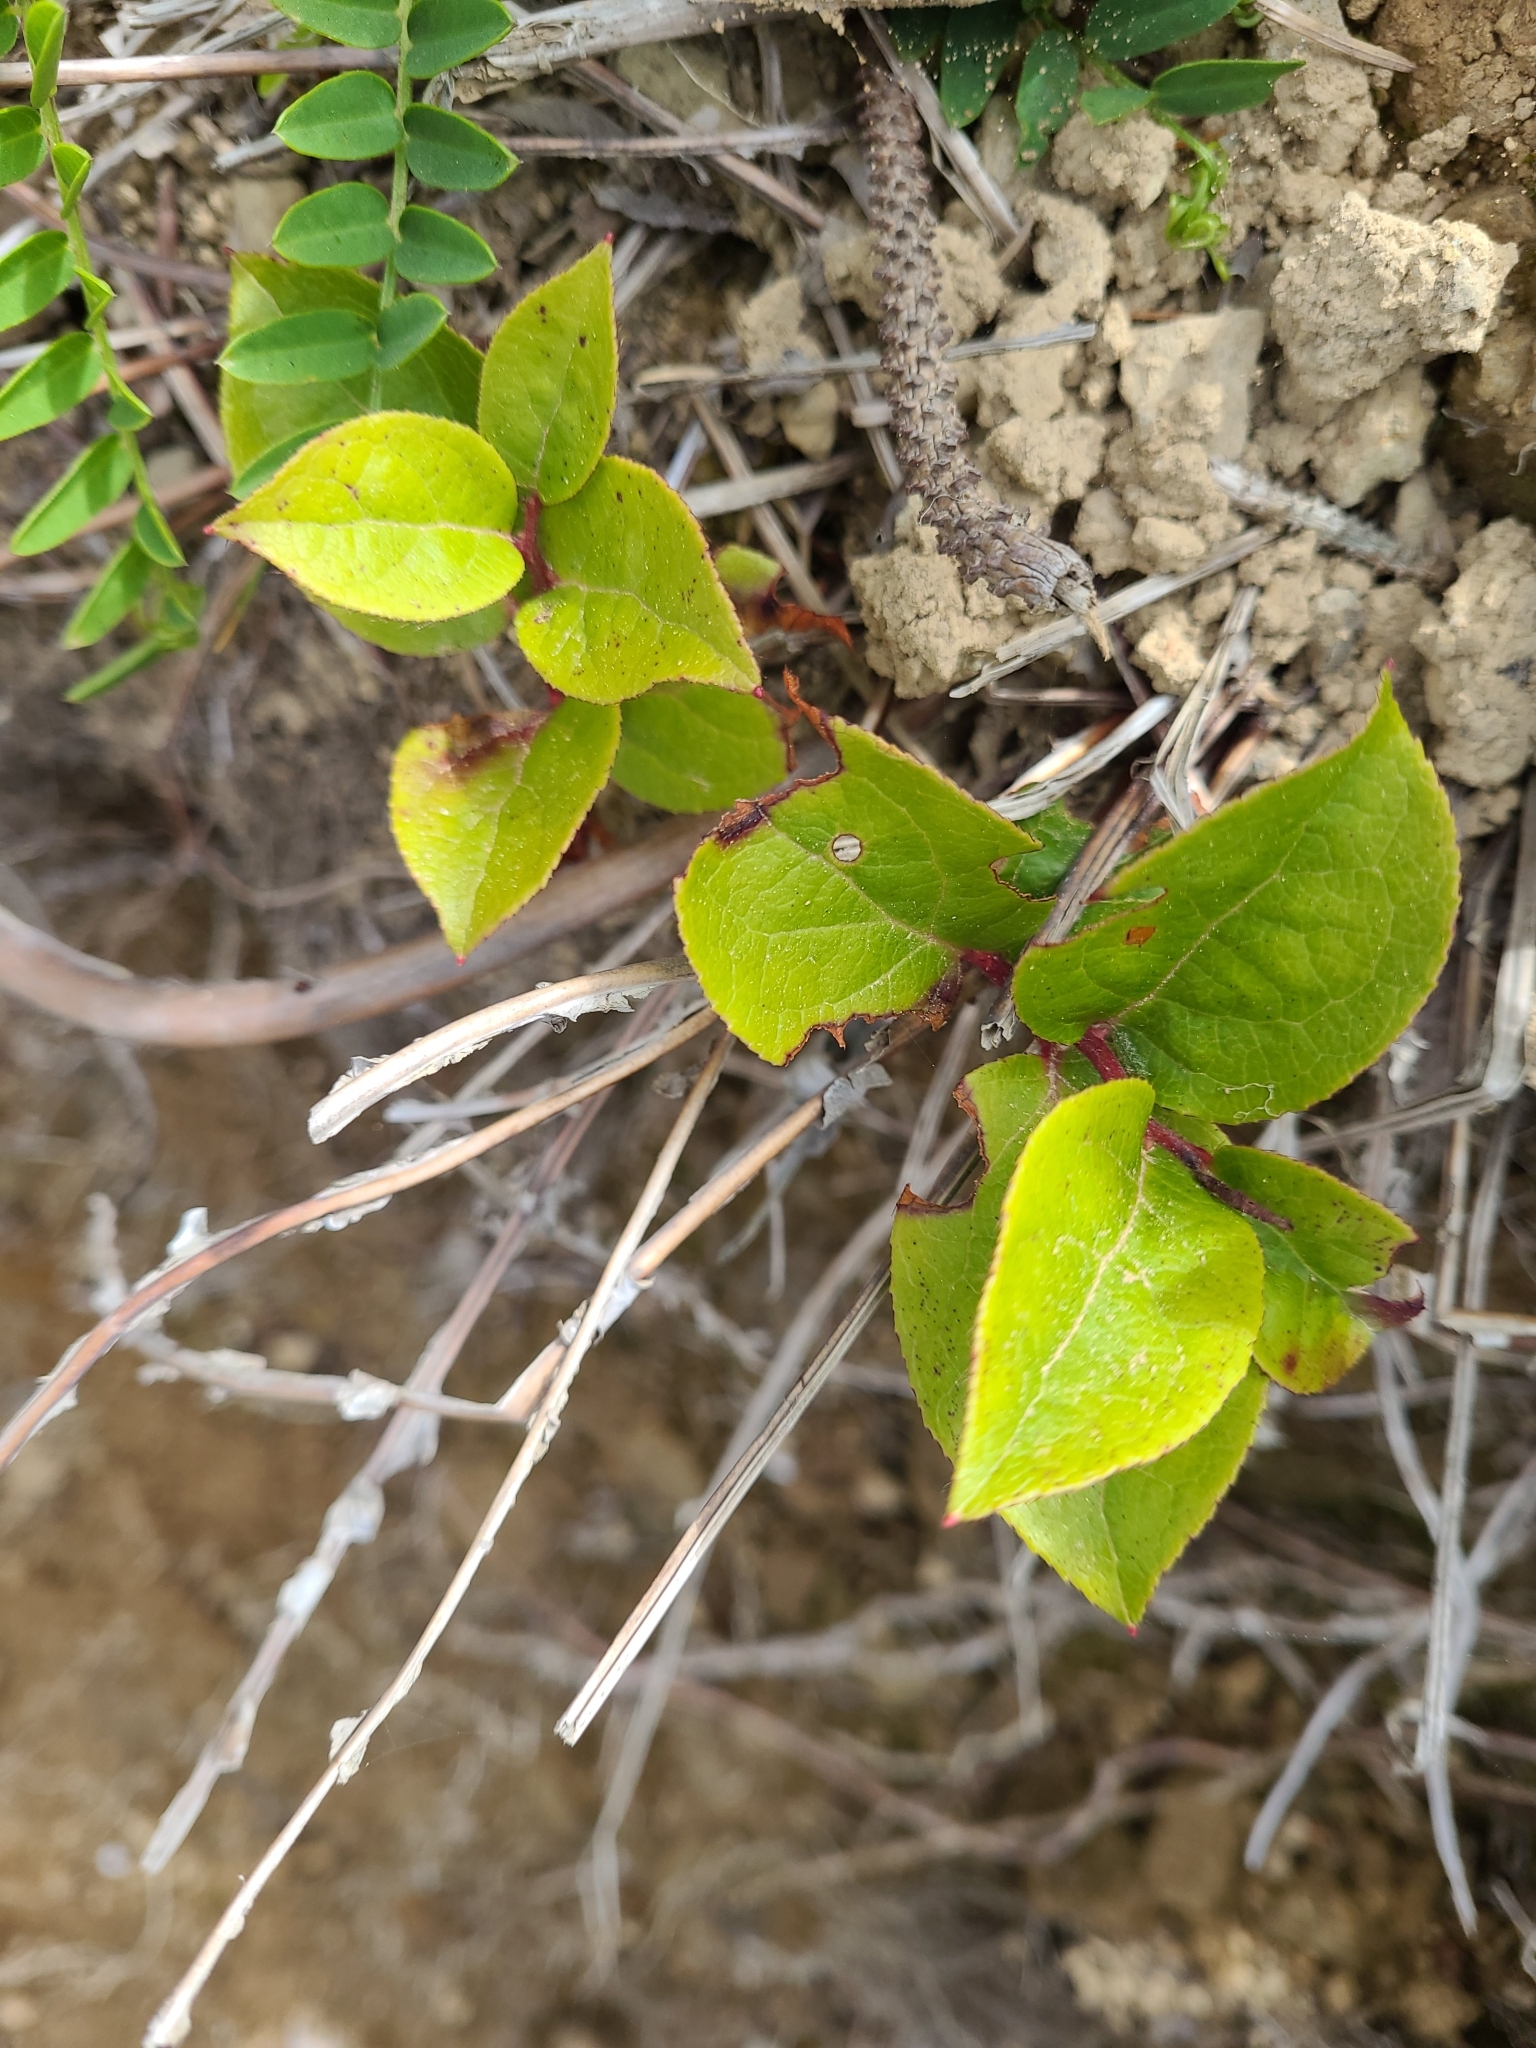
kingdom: Plantae
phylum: Tracheophyta
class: Magnoliopsida
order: Ericales
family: Ericaceae
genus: Gaultheria
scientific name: Gaultheria shallon
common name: Shallon
